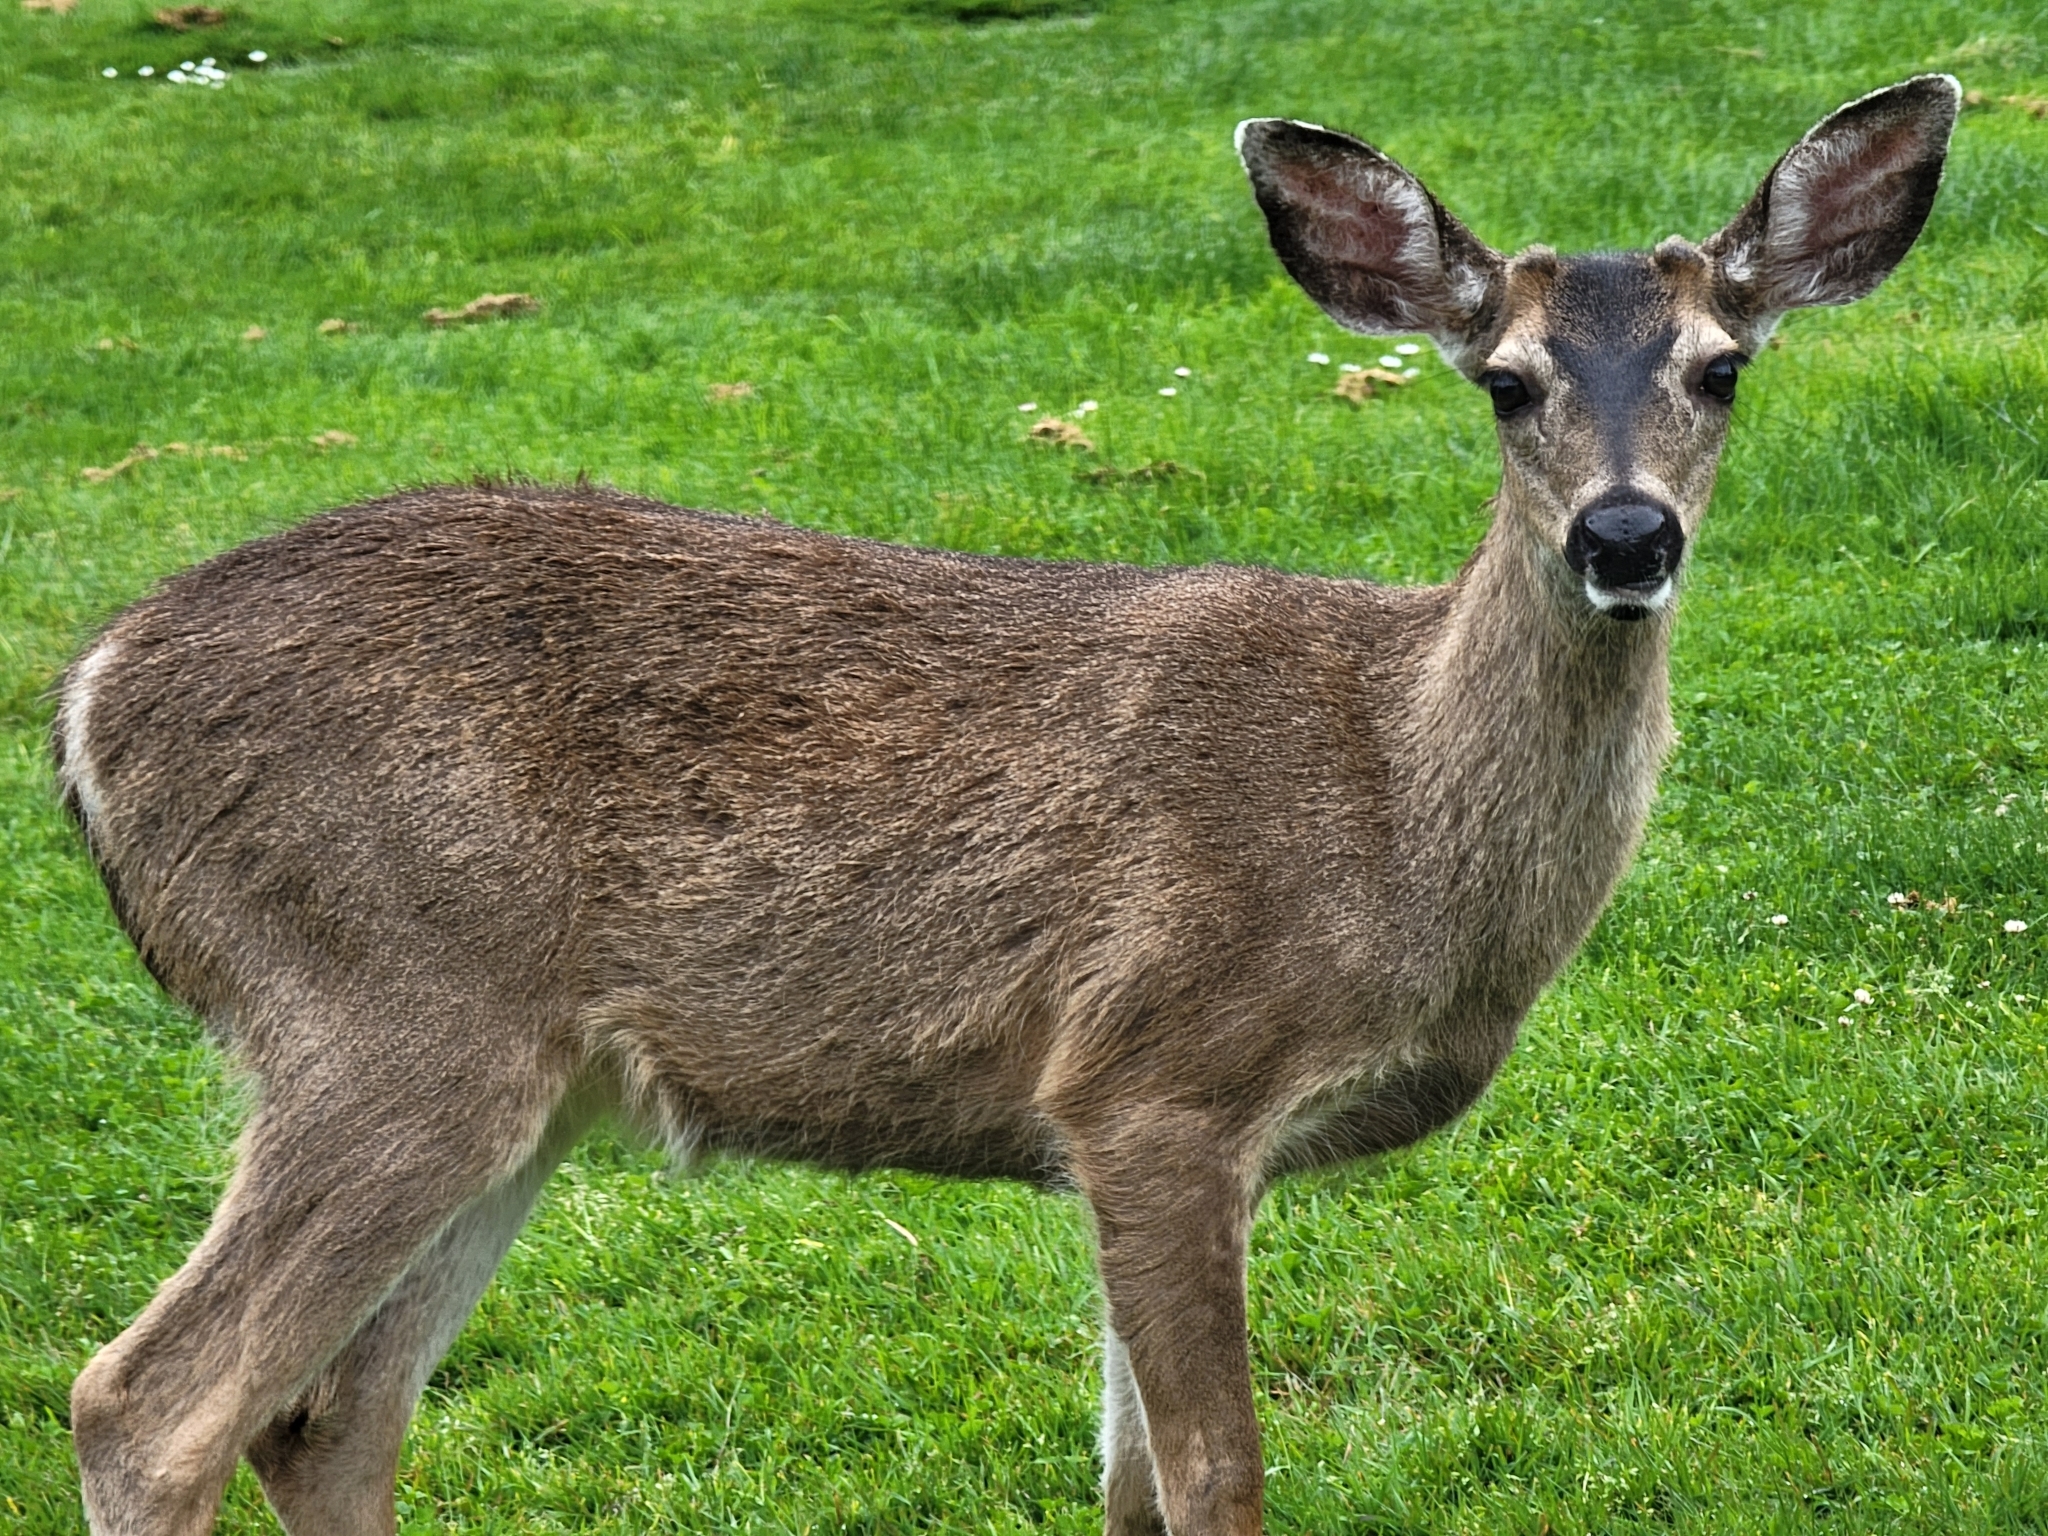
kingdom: Animalia
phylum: Chordata
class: Mammalia
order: Artiodactyla
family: Cervidae
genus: Odocoileus
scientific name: Odocoileus hemionus
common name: Mule deer
